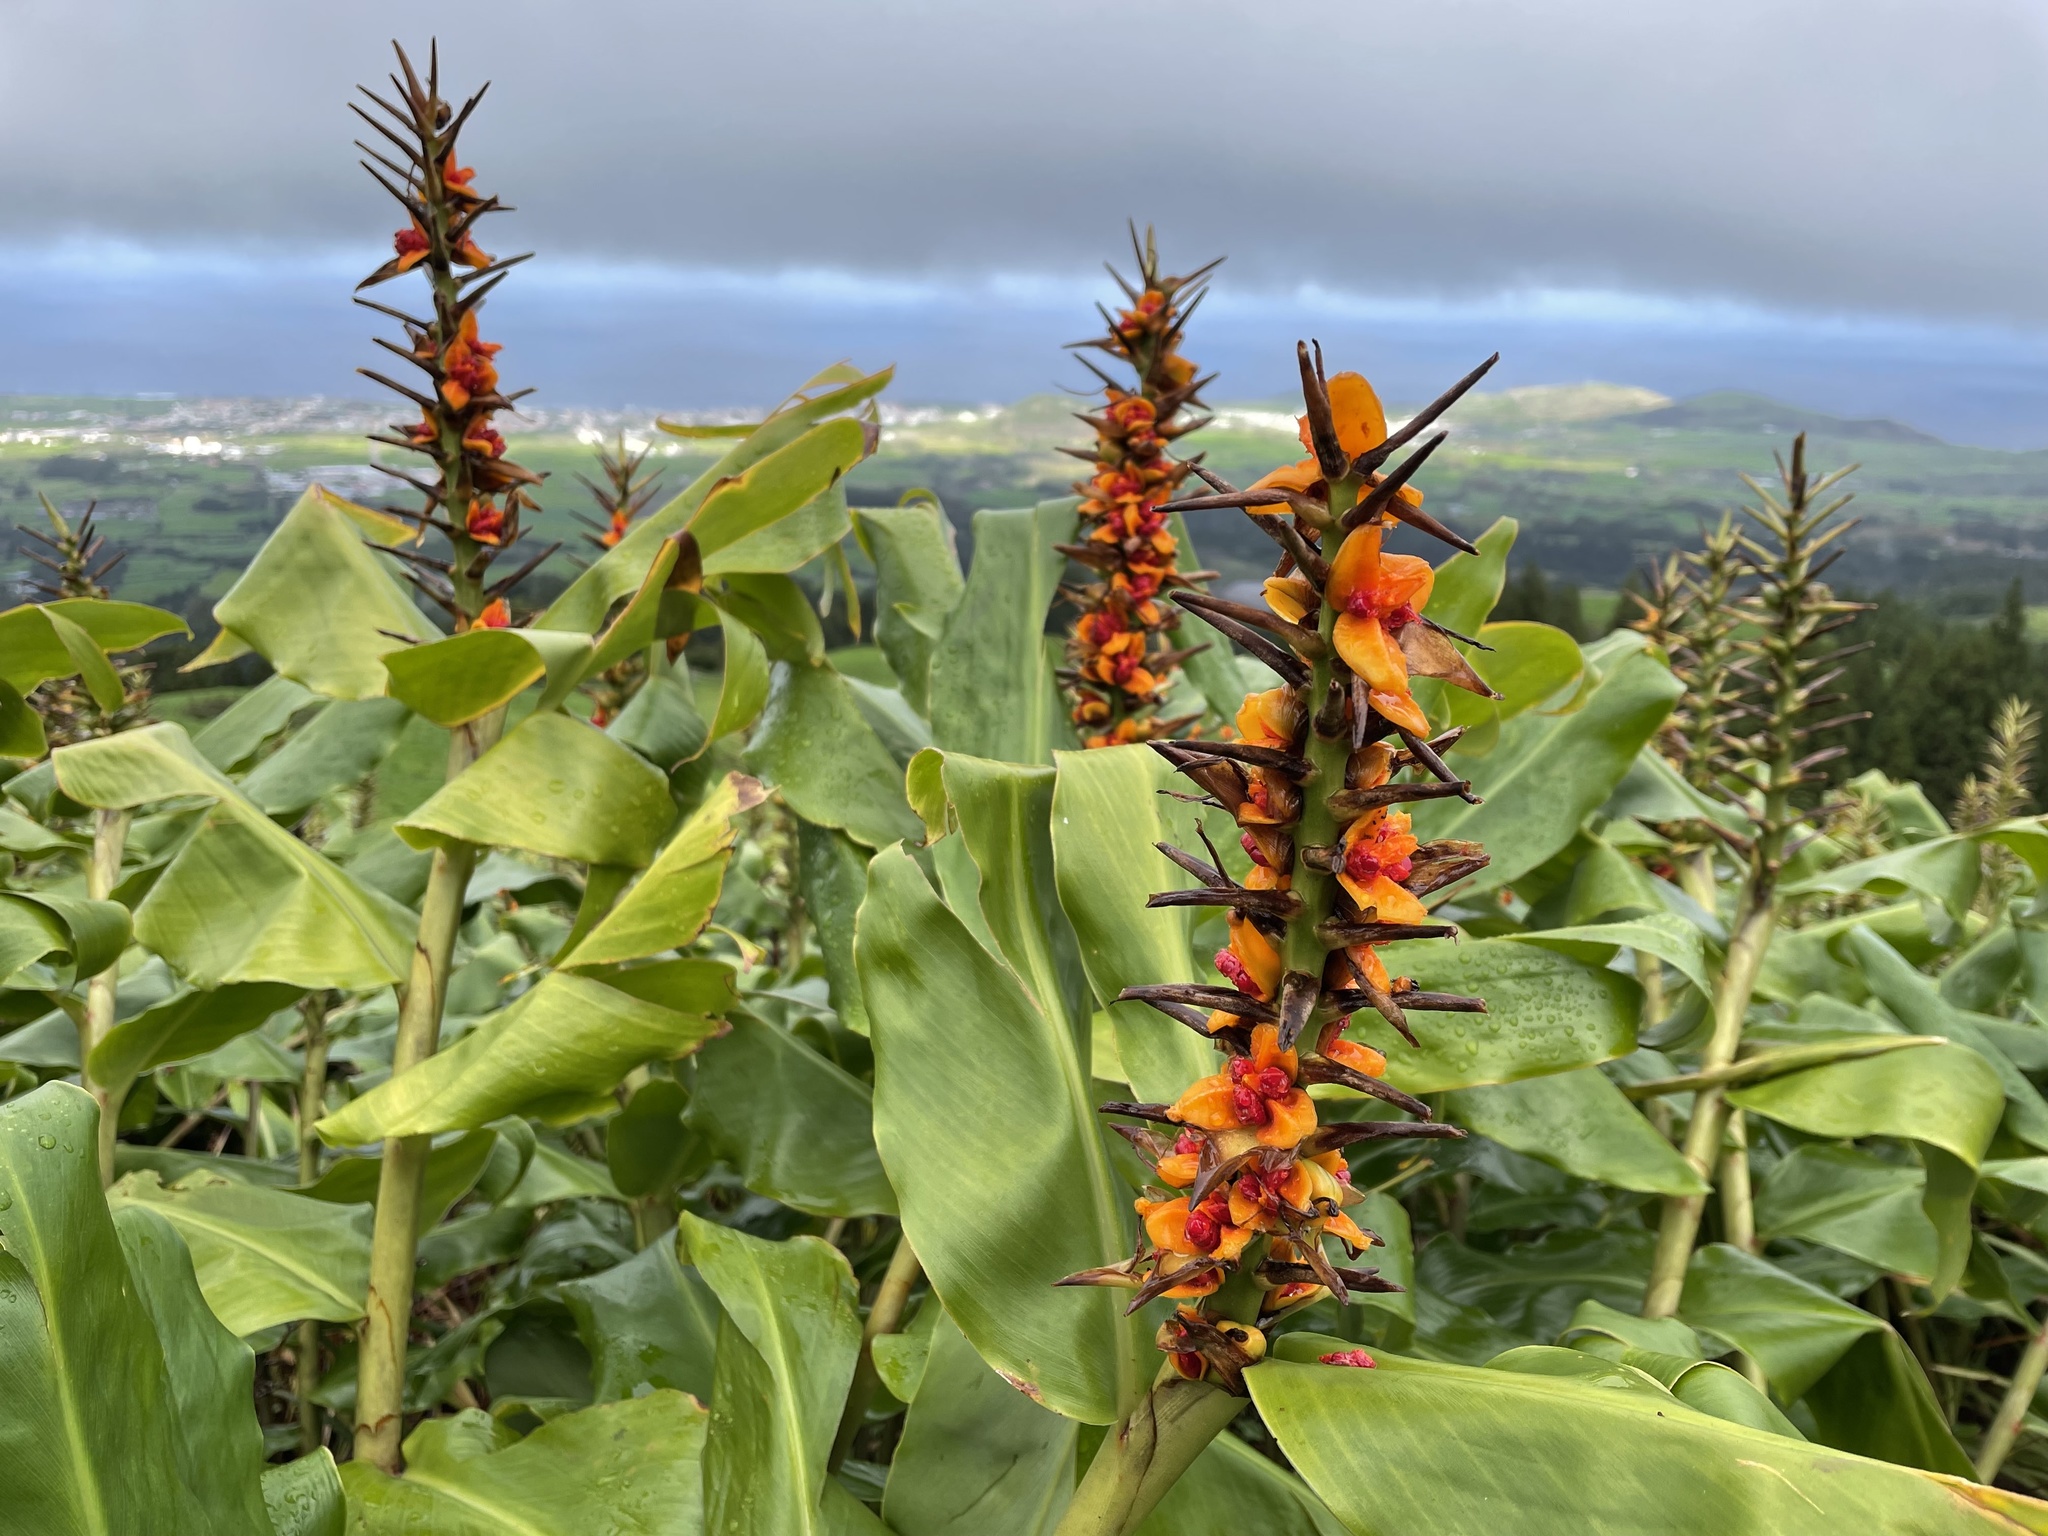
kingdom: Plantae
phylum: Tracheophyta
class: Liliopsida
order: Zingiberales
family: Zingiberaceae
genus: Hedychium
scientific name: Hedychium gardnerianum
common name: Himalayan ginger
